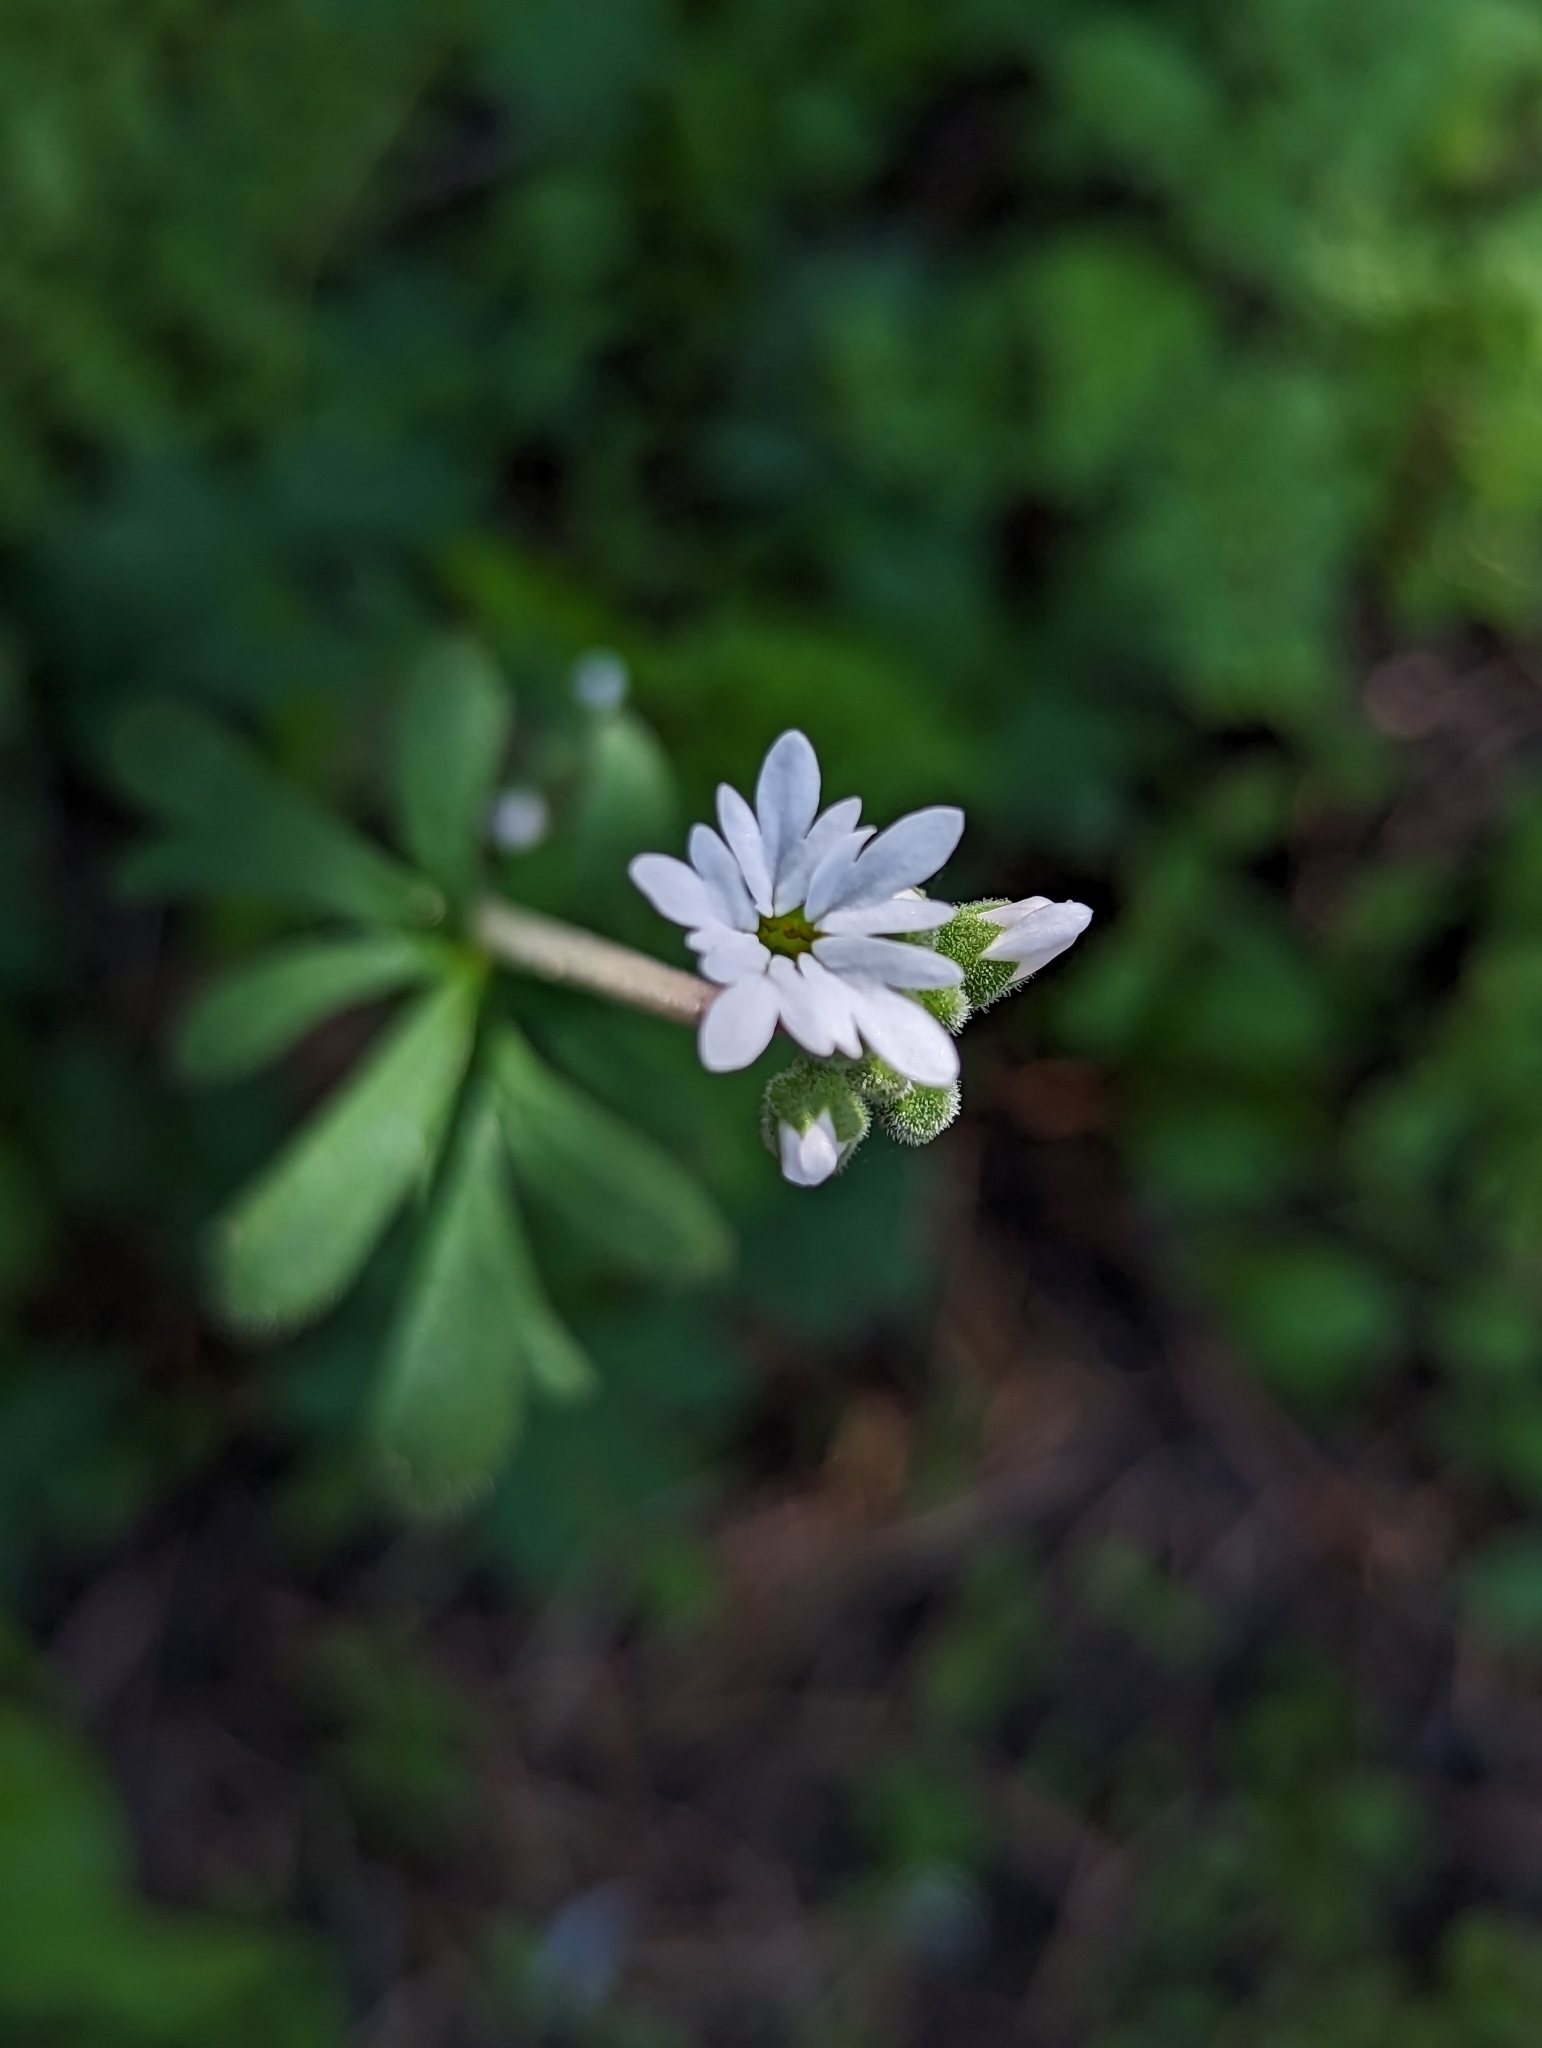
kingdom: Plantae
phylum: Tracheophyta
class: Magnoliopsida
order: Saxifragales
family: Saxifragaceae
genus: Lithophragma
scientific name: Lithophragma parviflorum
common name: Small-flowered fringe-cup
